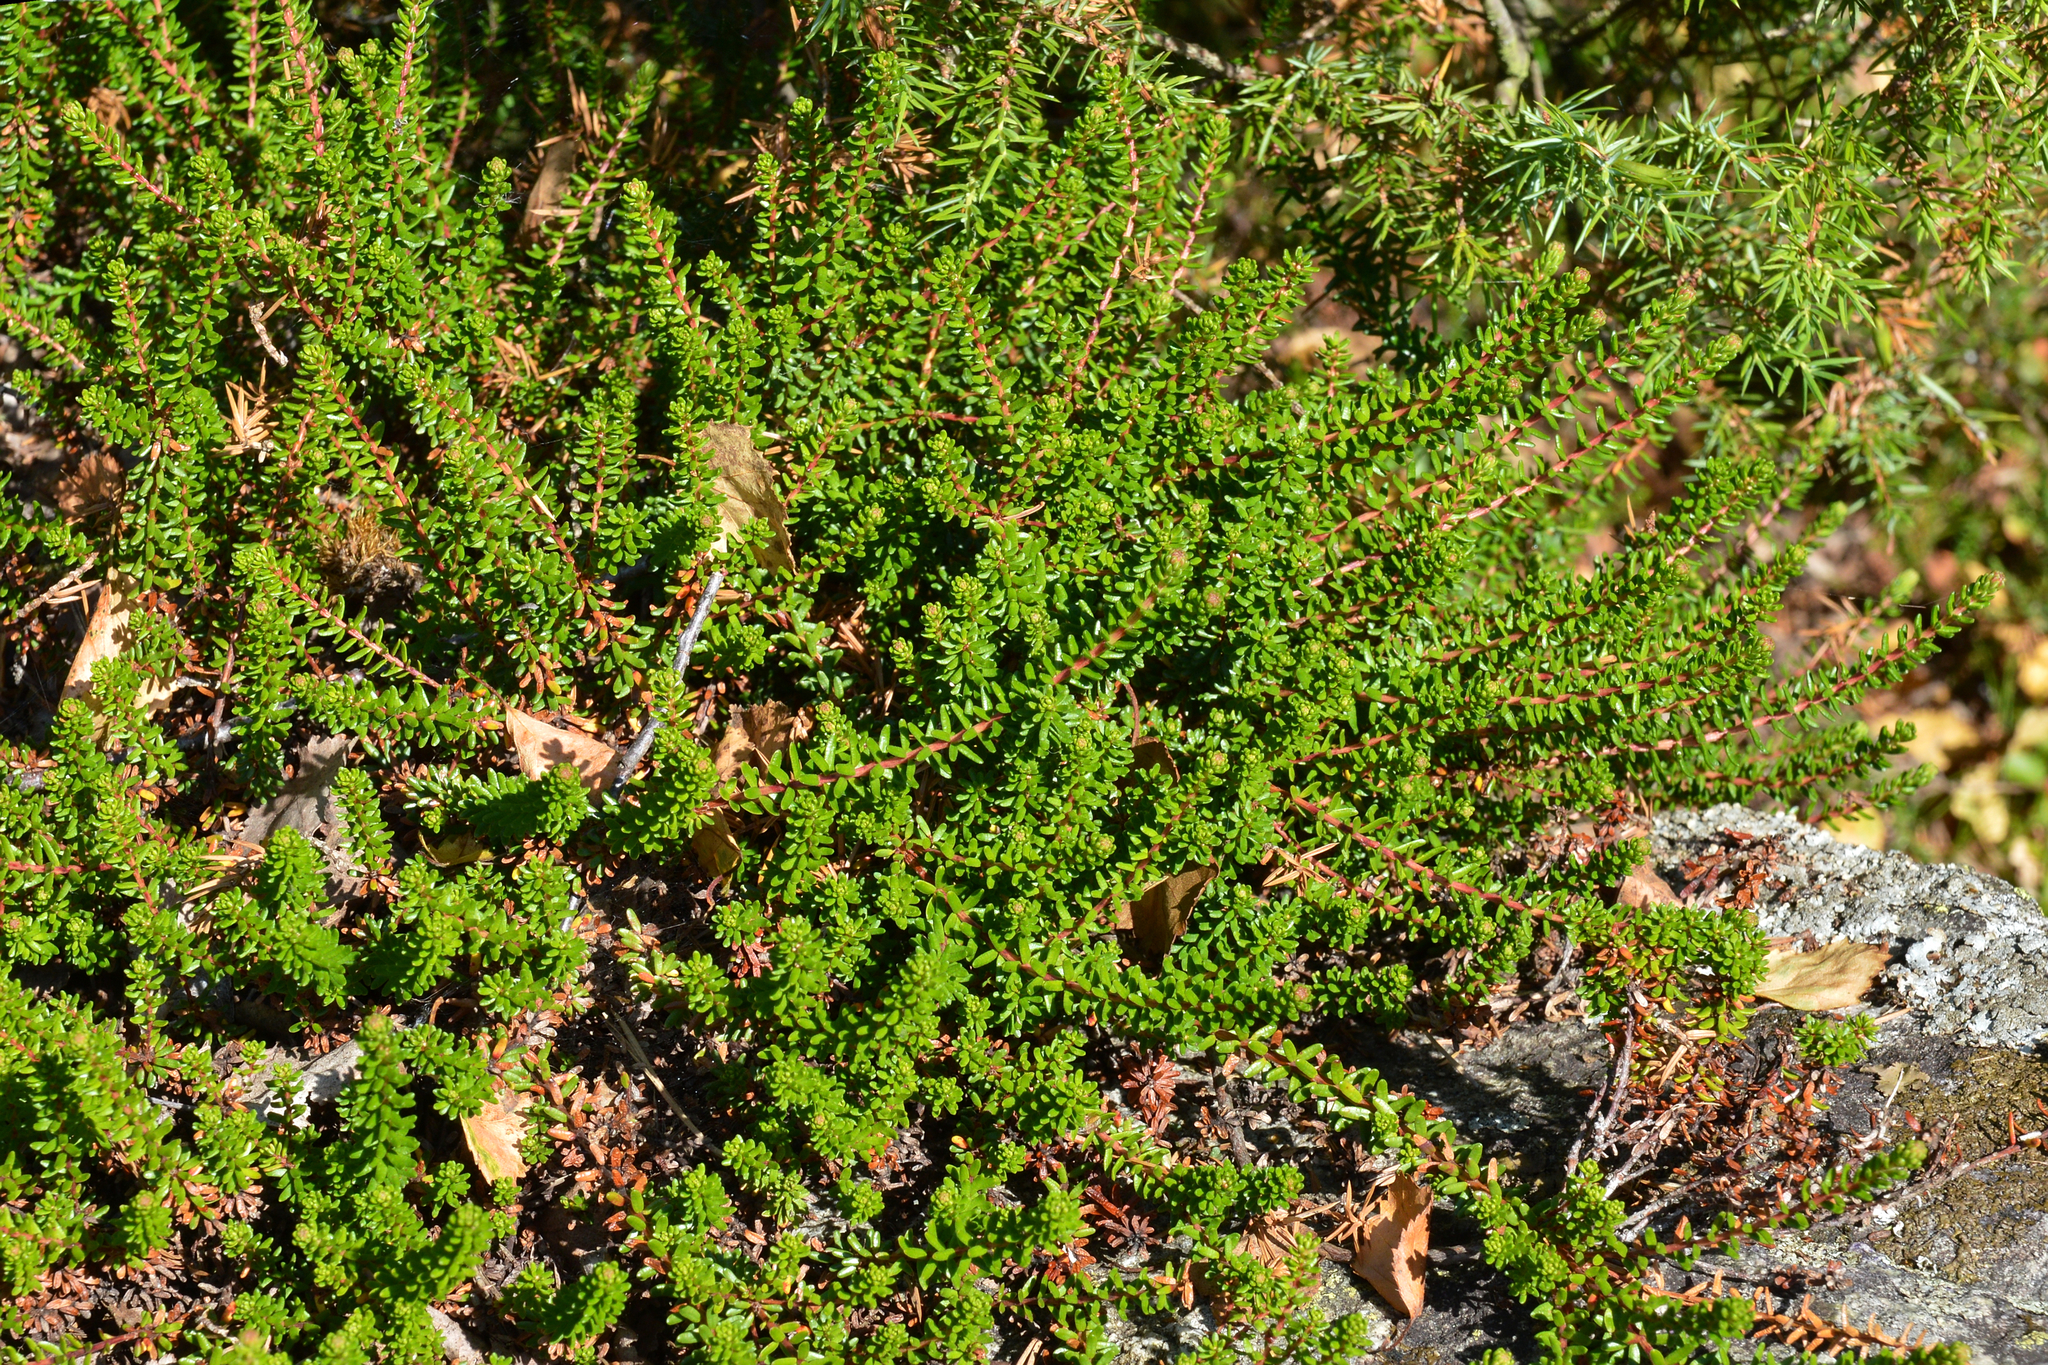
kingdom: Plantae
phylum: Tracheophyta
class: Magnoliopsida
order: Ericales
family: Ericaceae
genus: Empetrum
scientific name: Empetrum nigrum
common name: Black crowberry
